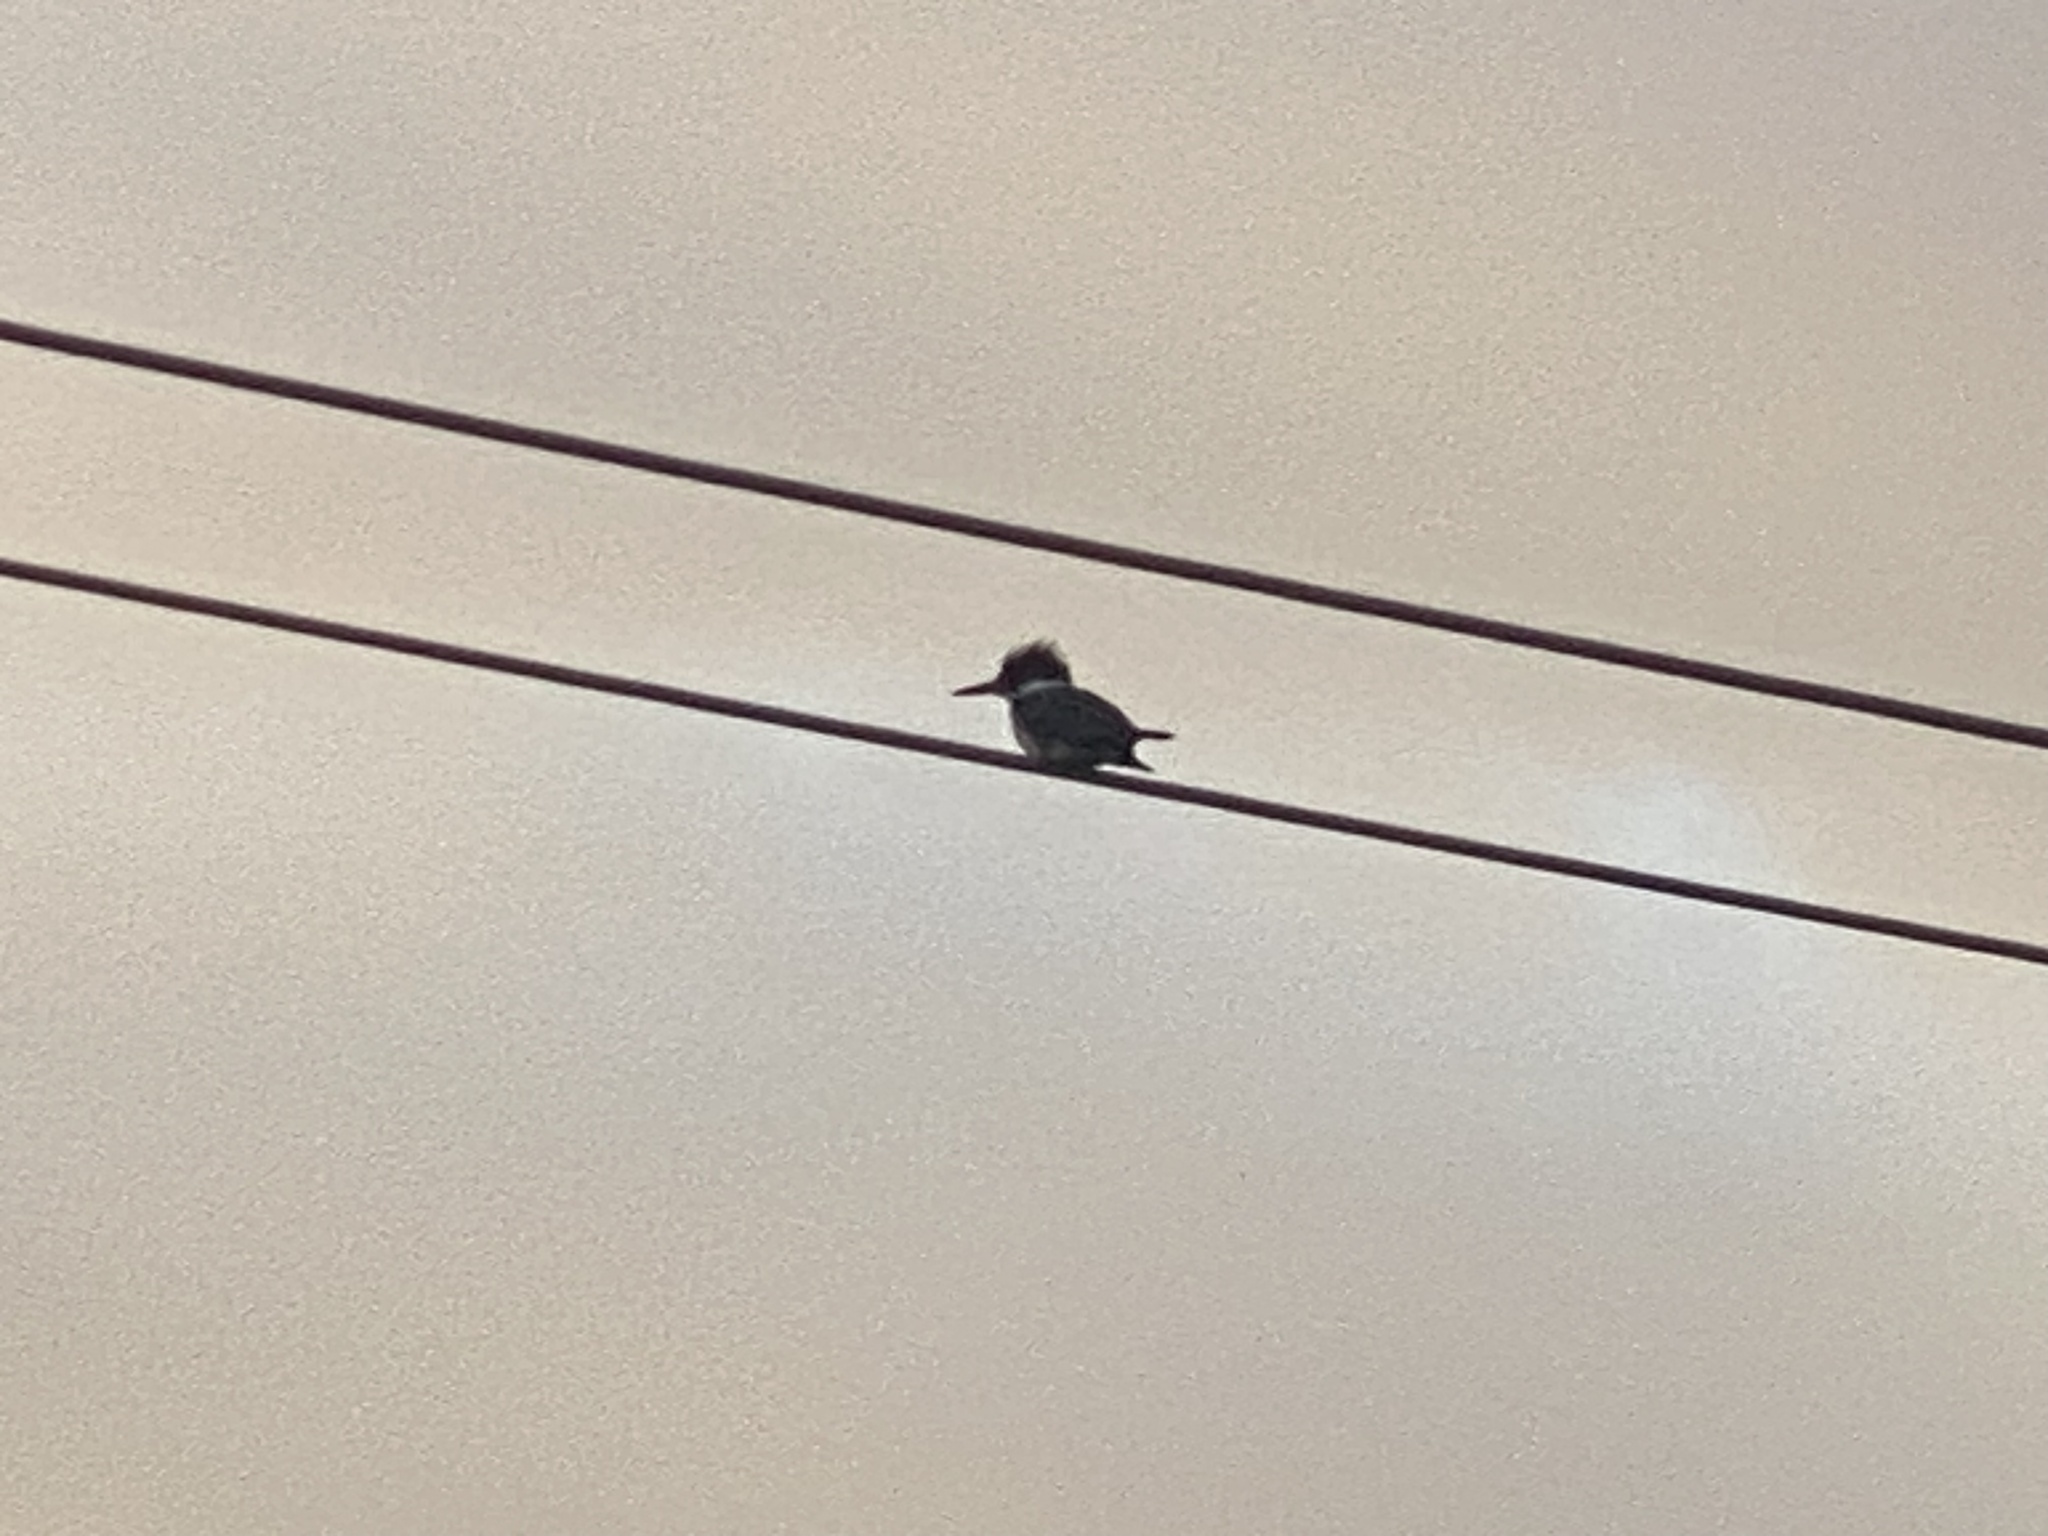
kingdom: Animalia
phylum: Chordata
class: Aves
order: Coraciiformes
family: Alcedinidae
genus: Megaceryle
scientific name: Megaceryle alcyon
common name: Belted kingfisher
